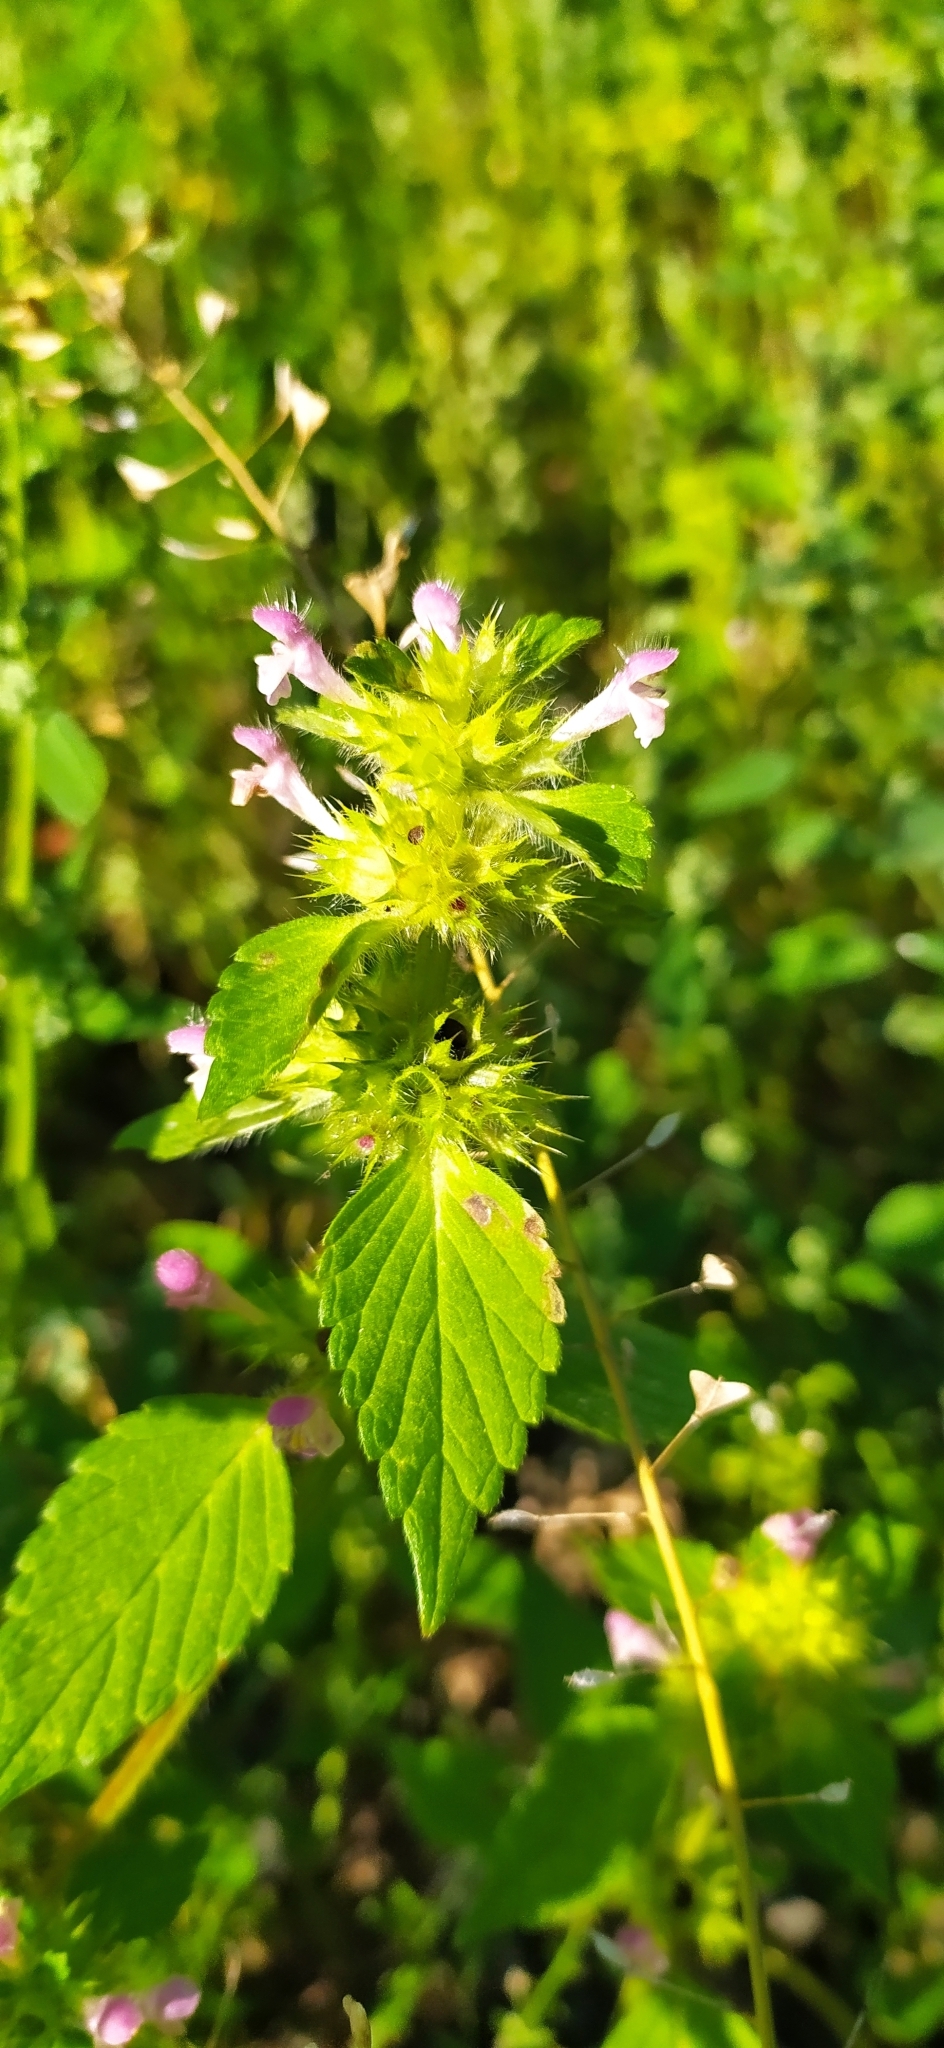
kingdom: Plantae
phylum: Tracheophyta
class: Magnoliopsida
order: Lamiales
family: Lamiaceae
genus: Galeopsis
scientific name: Galeopsis bifida
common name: Bifid hemp-nettle
